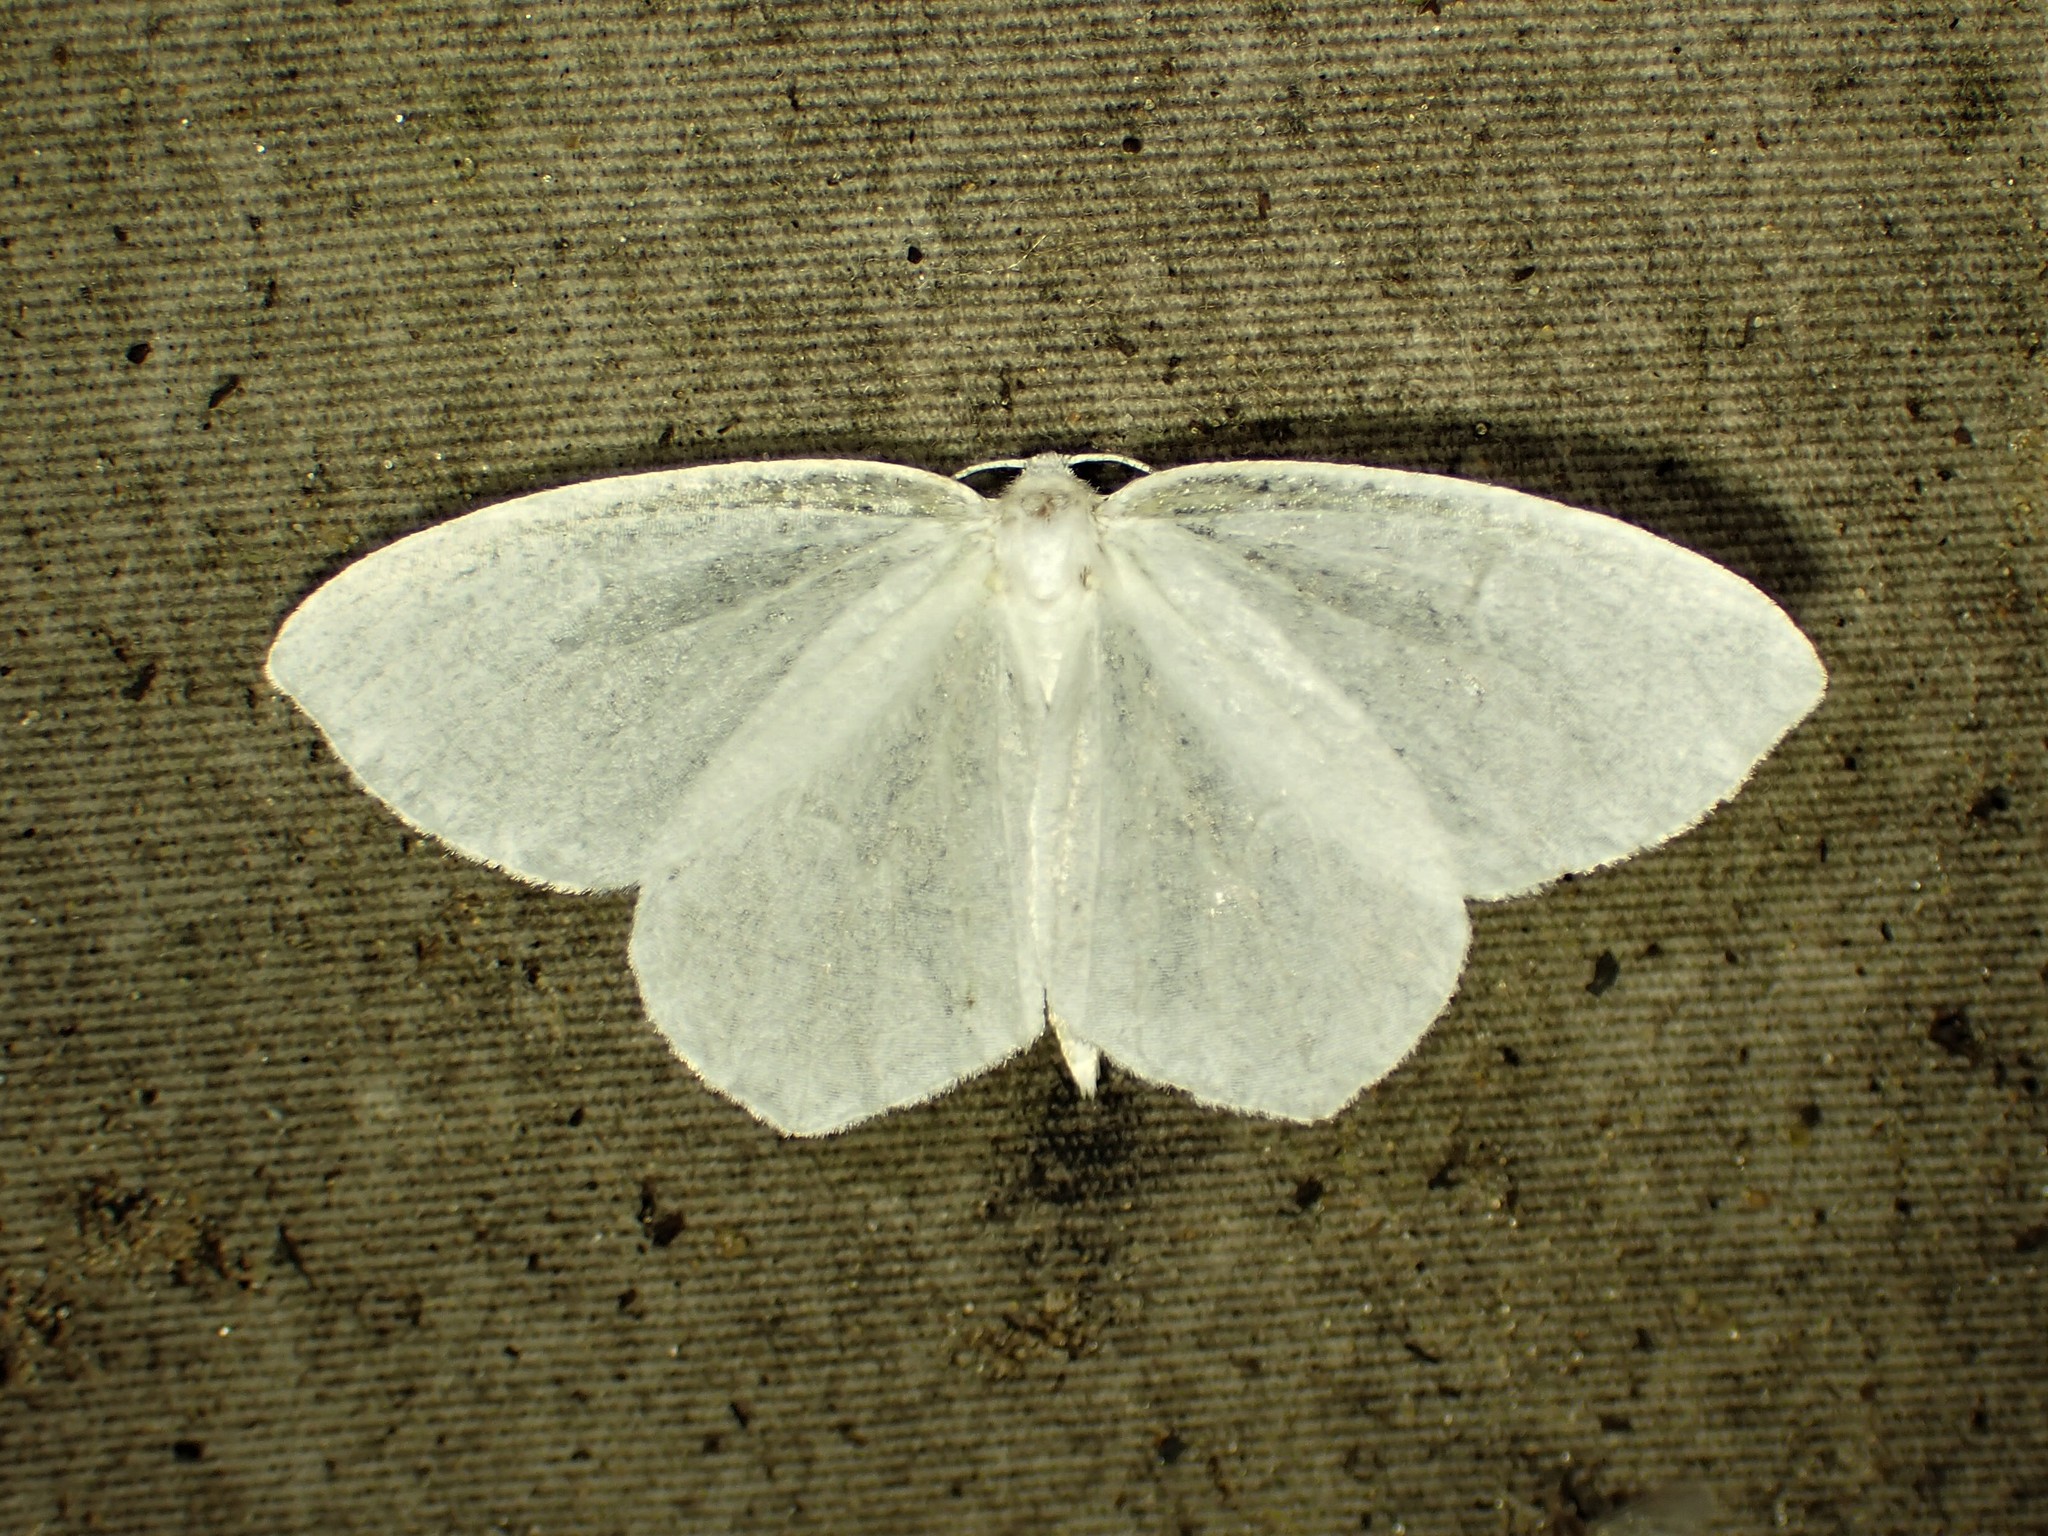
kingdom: Animalia
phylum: Arthropoda
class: Insecta
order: Lepidoptera
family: Geometridae
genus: Eugonobapta
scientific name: Eugonobapta nivosaria
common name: Snowy geometer
